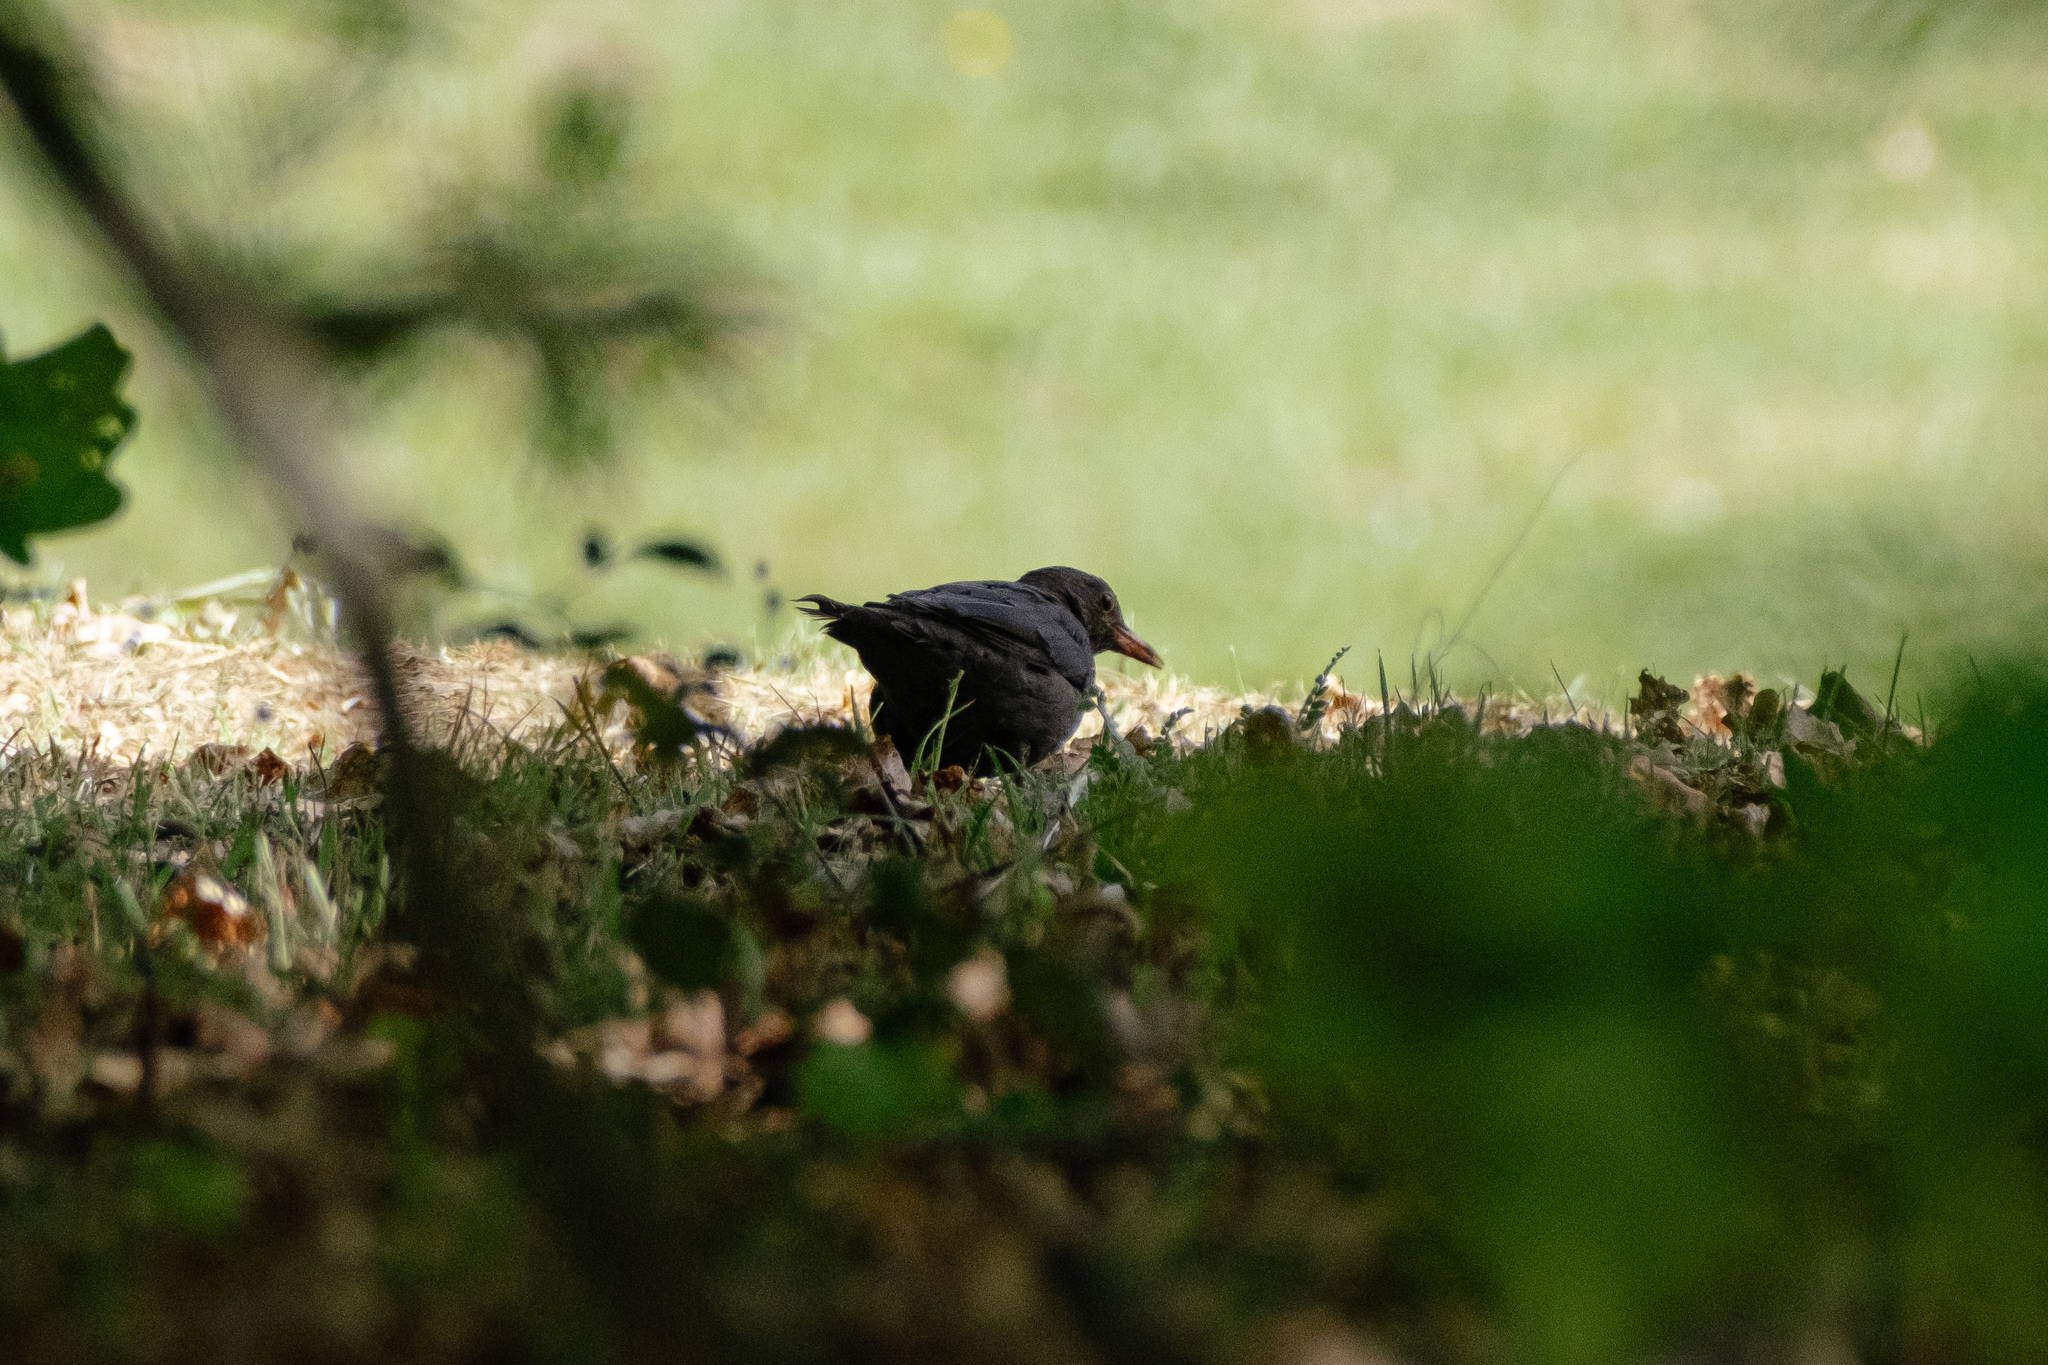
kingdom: Animalia
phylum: Chordata
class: Aves
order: Passeriformes
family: Turdidae
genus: Turdus
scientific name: Turdus merula
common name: Common blackbird
